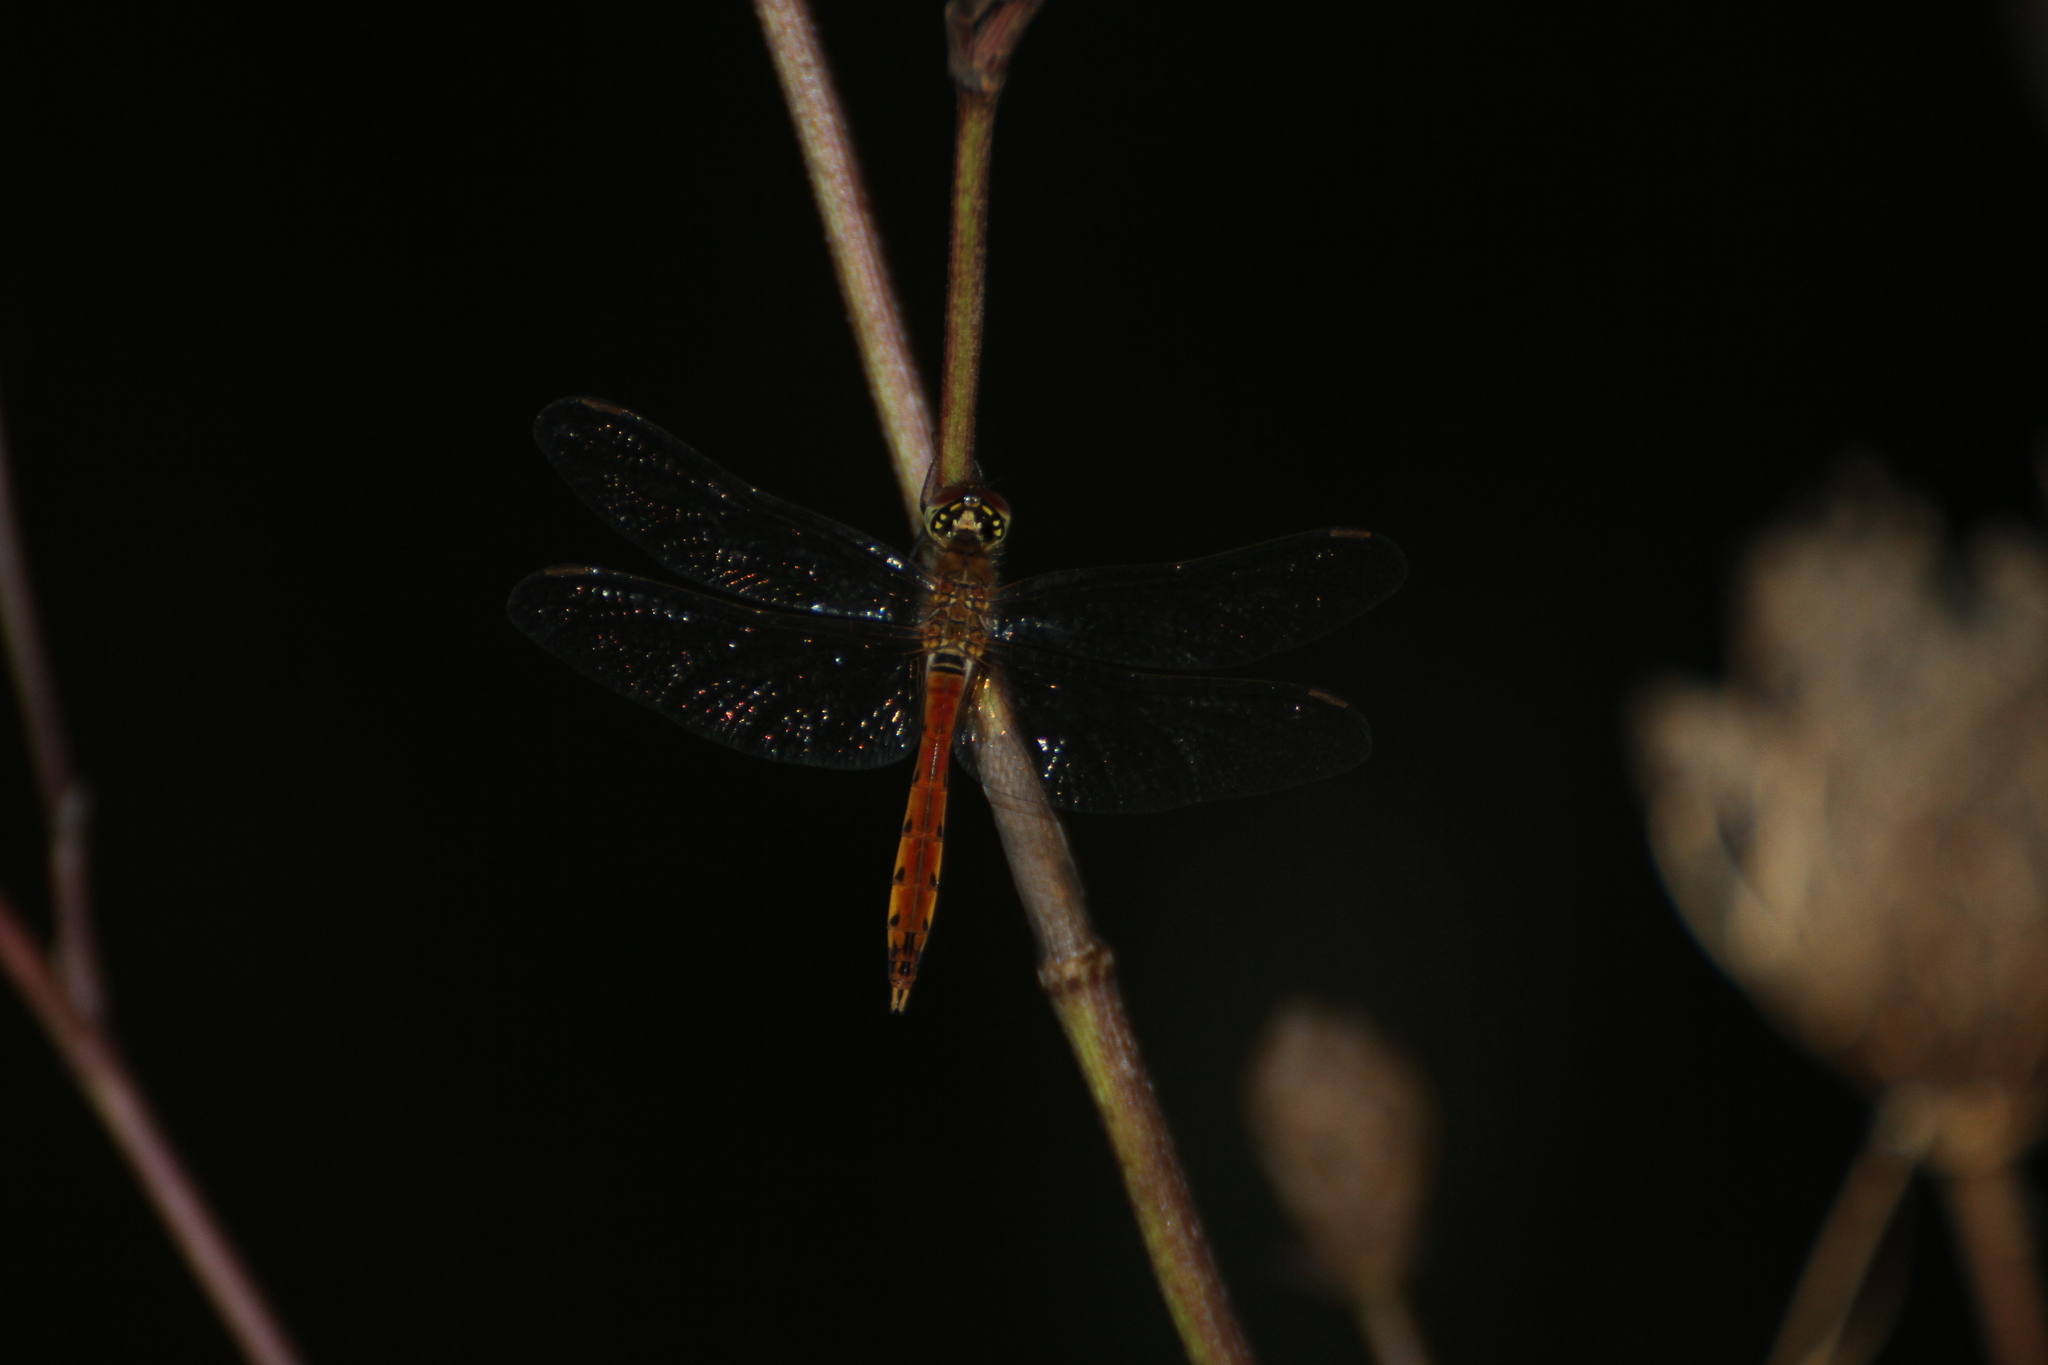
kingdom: Animalia
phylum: Arthropoda
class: Insecta
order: Odonata
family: Libellulidae
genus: Sympetrum
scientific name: Sympetrum depressiusculum
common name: Spotted darter
